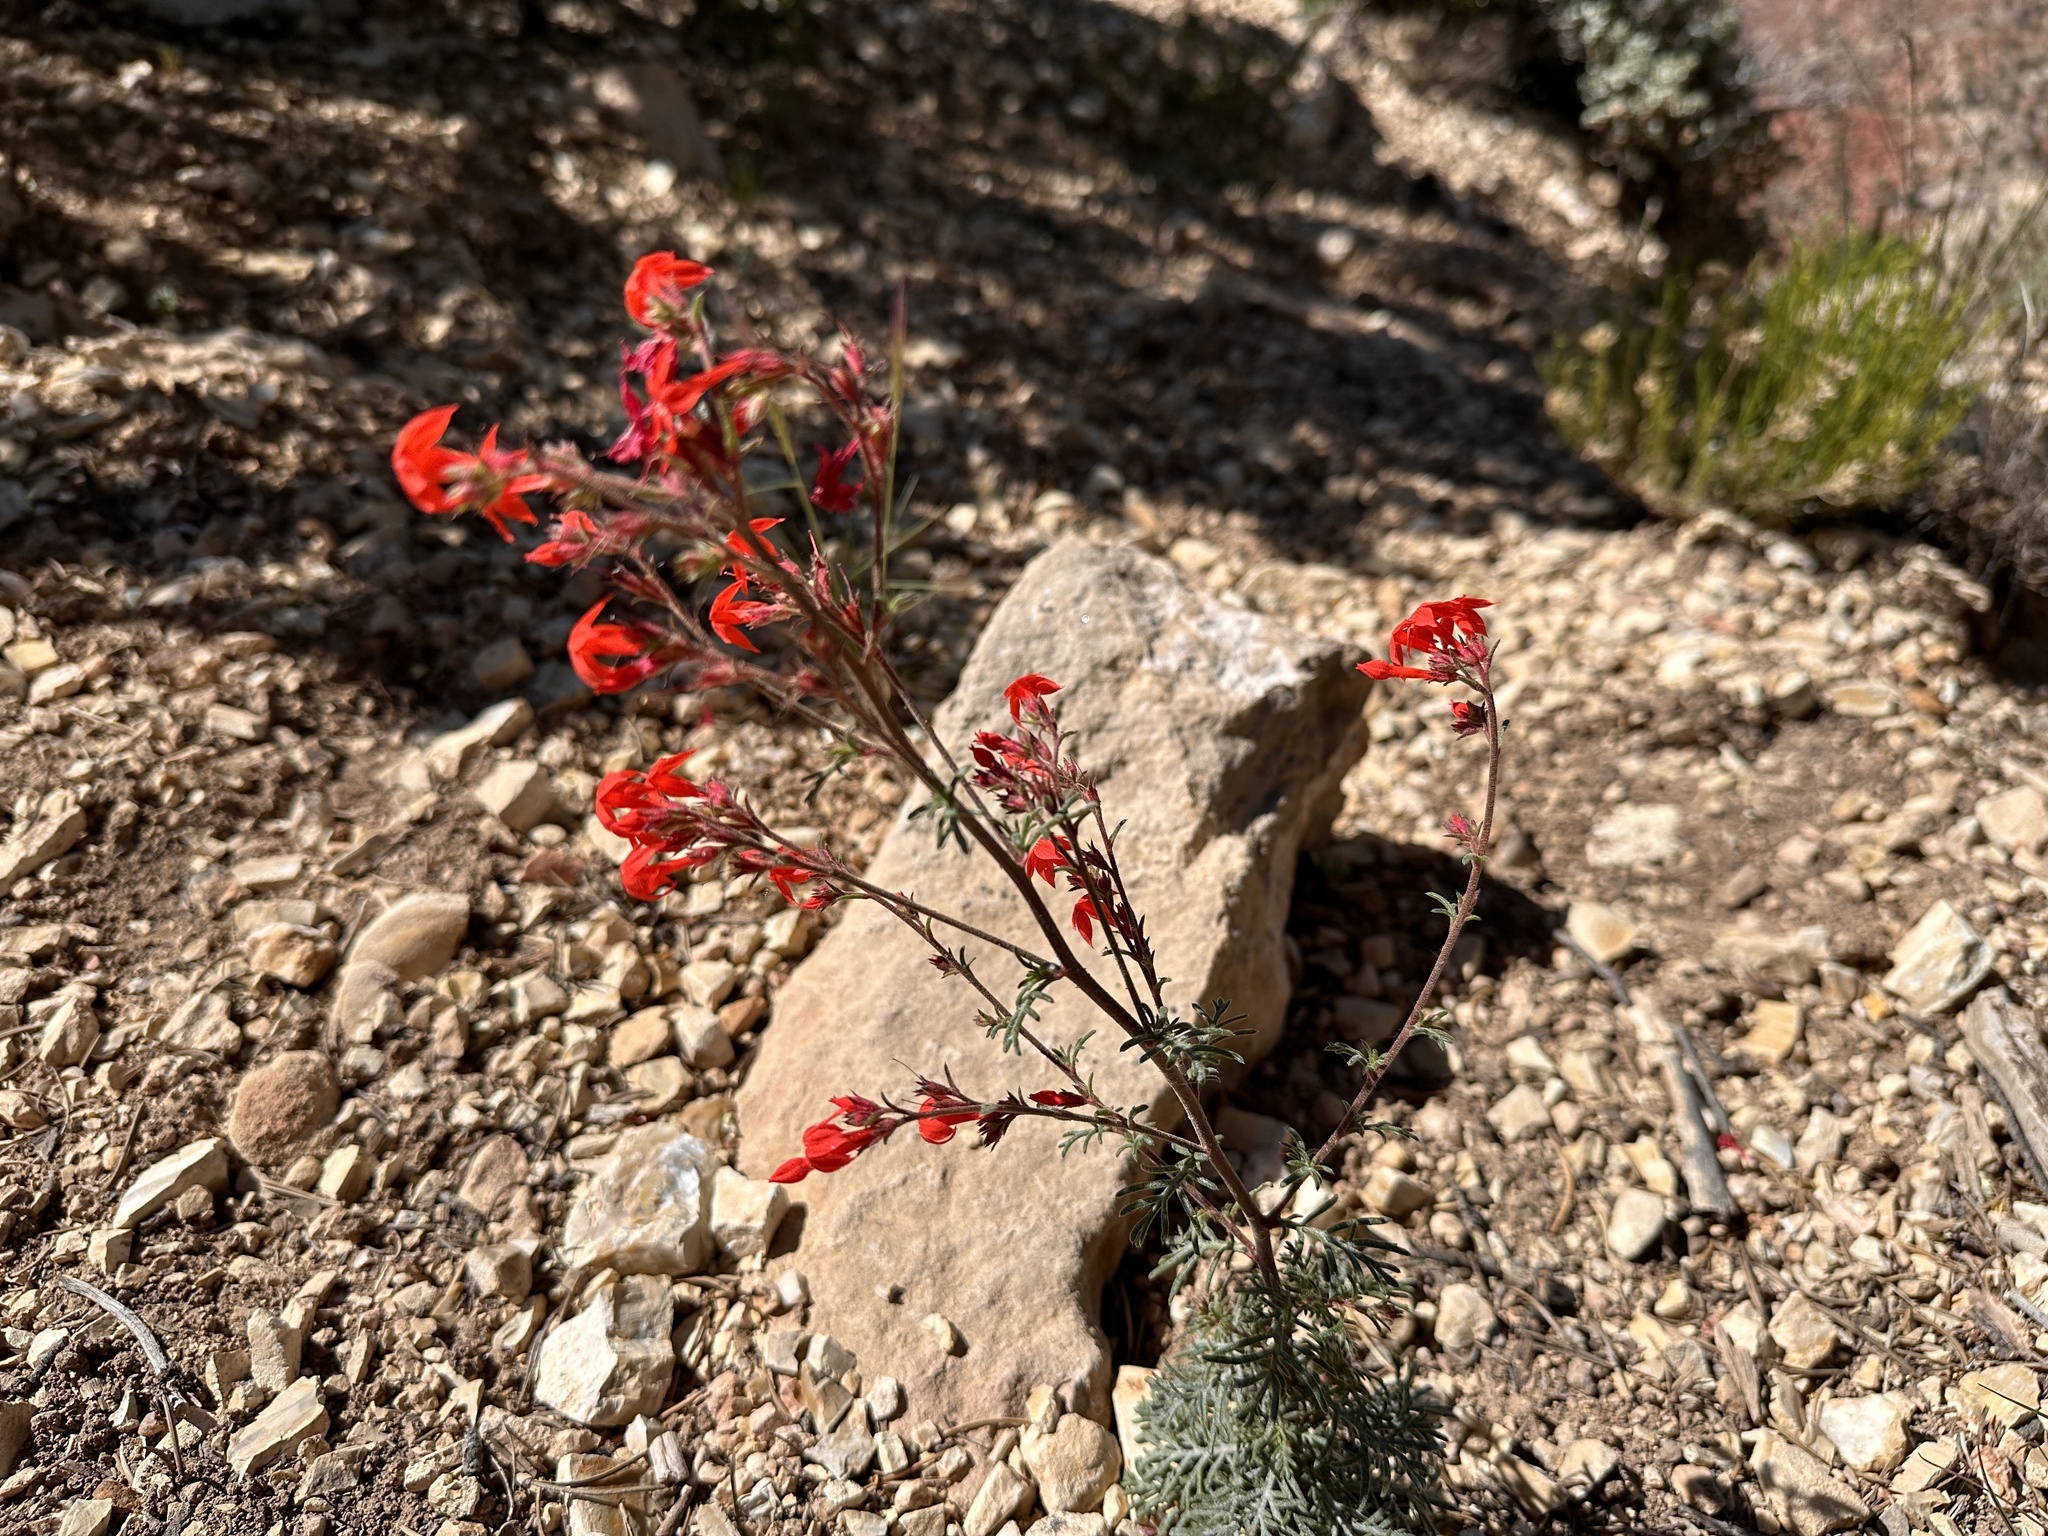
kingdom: Plantae
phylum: Tracheophyta
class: Magnoliopsida
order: Ericales
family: Polemoniaceae
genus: Ipomopsis
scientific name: Ipomopsis arizonica
